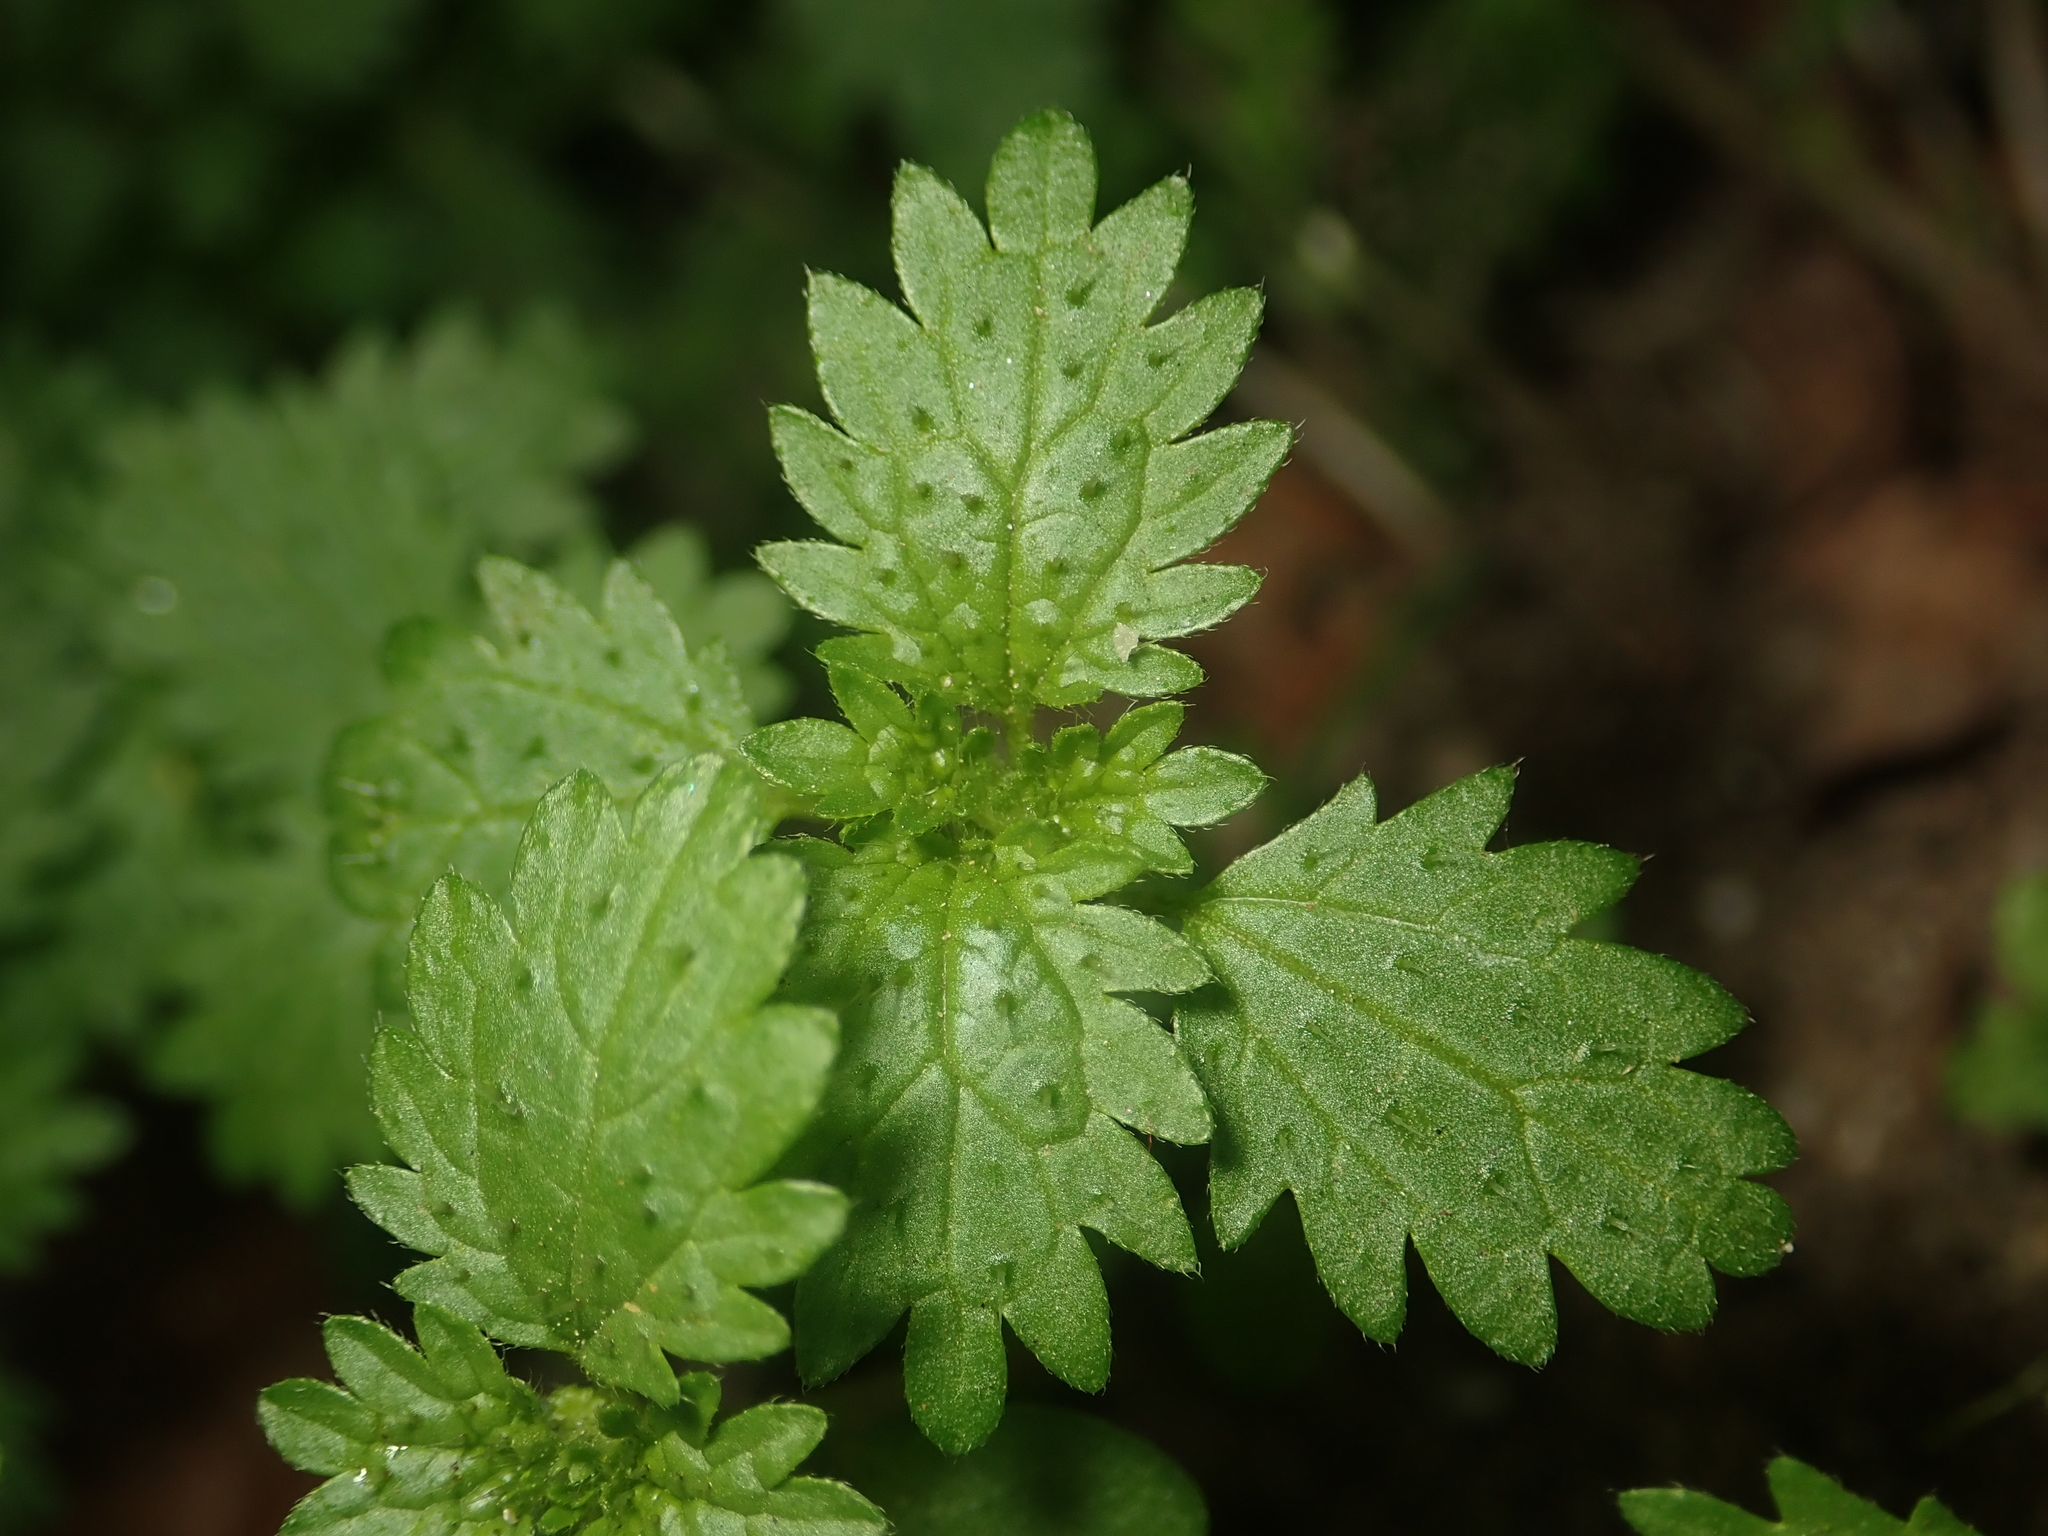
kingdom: Plantae
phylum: Tracheophyta
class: Magnoliopsida
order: Rosales
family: Urticaceae
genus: Urtica
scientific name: Urtica urens
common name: Dwarf nettle
